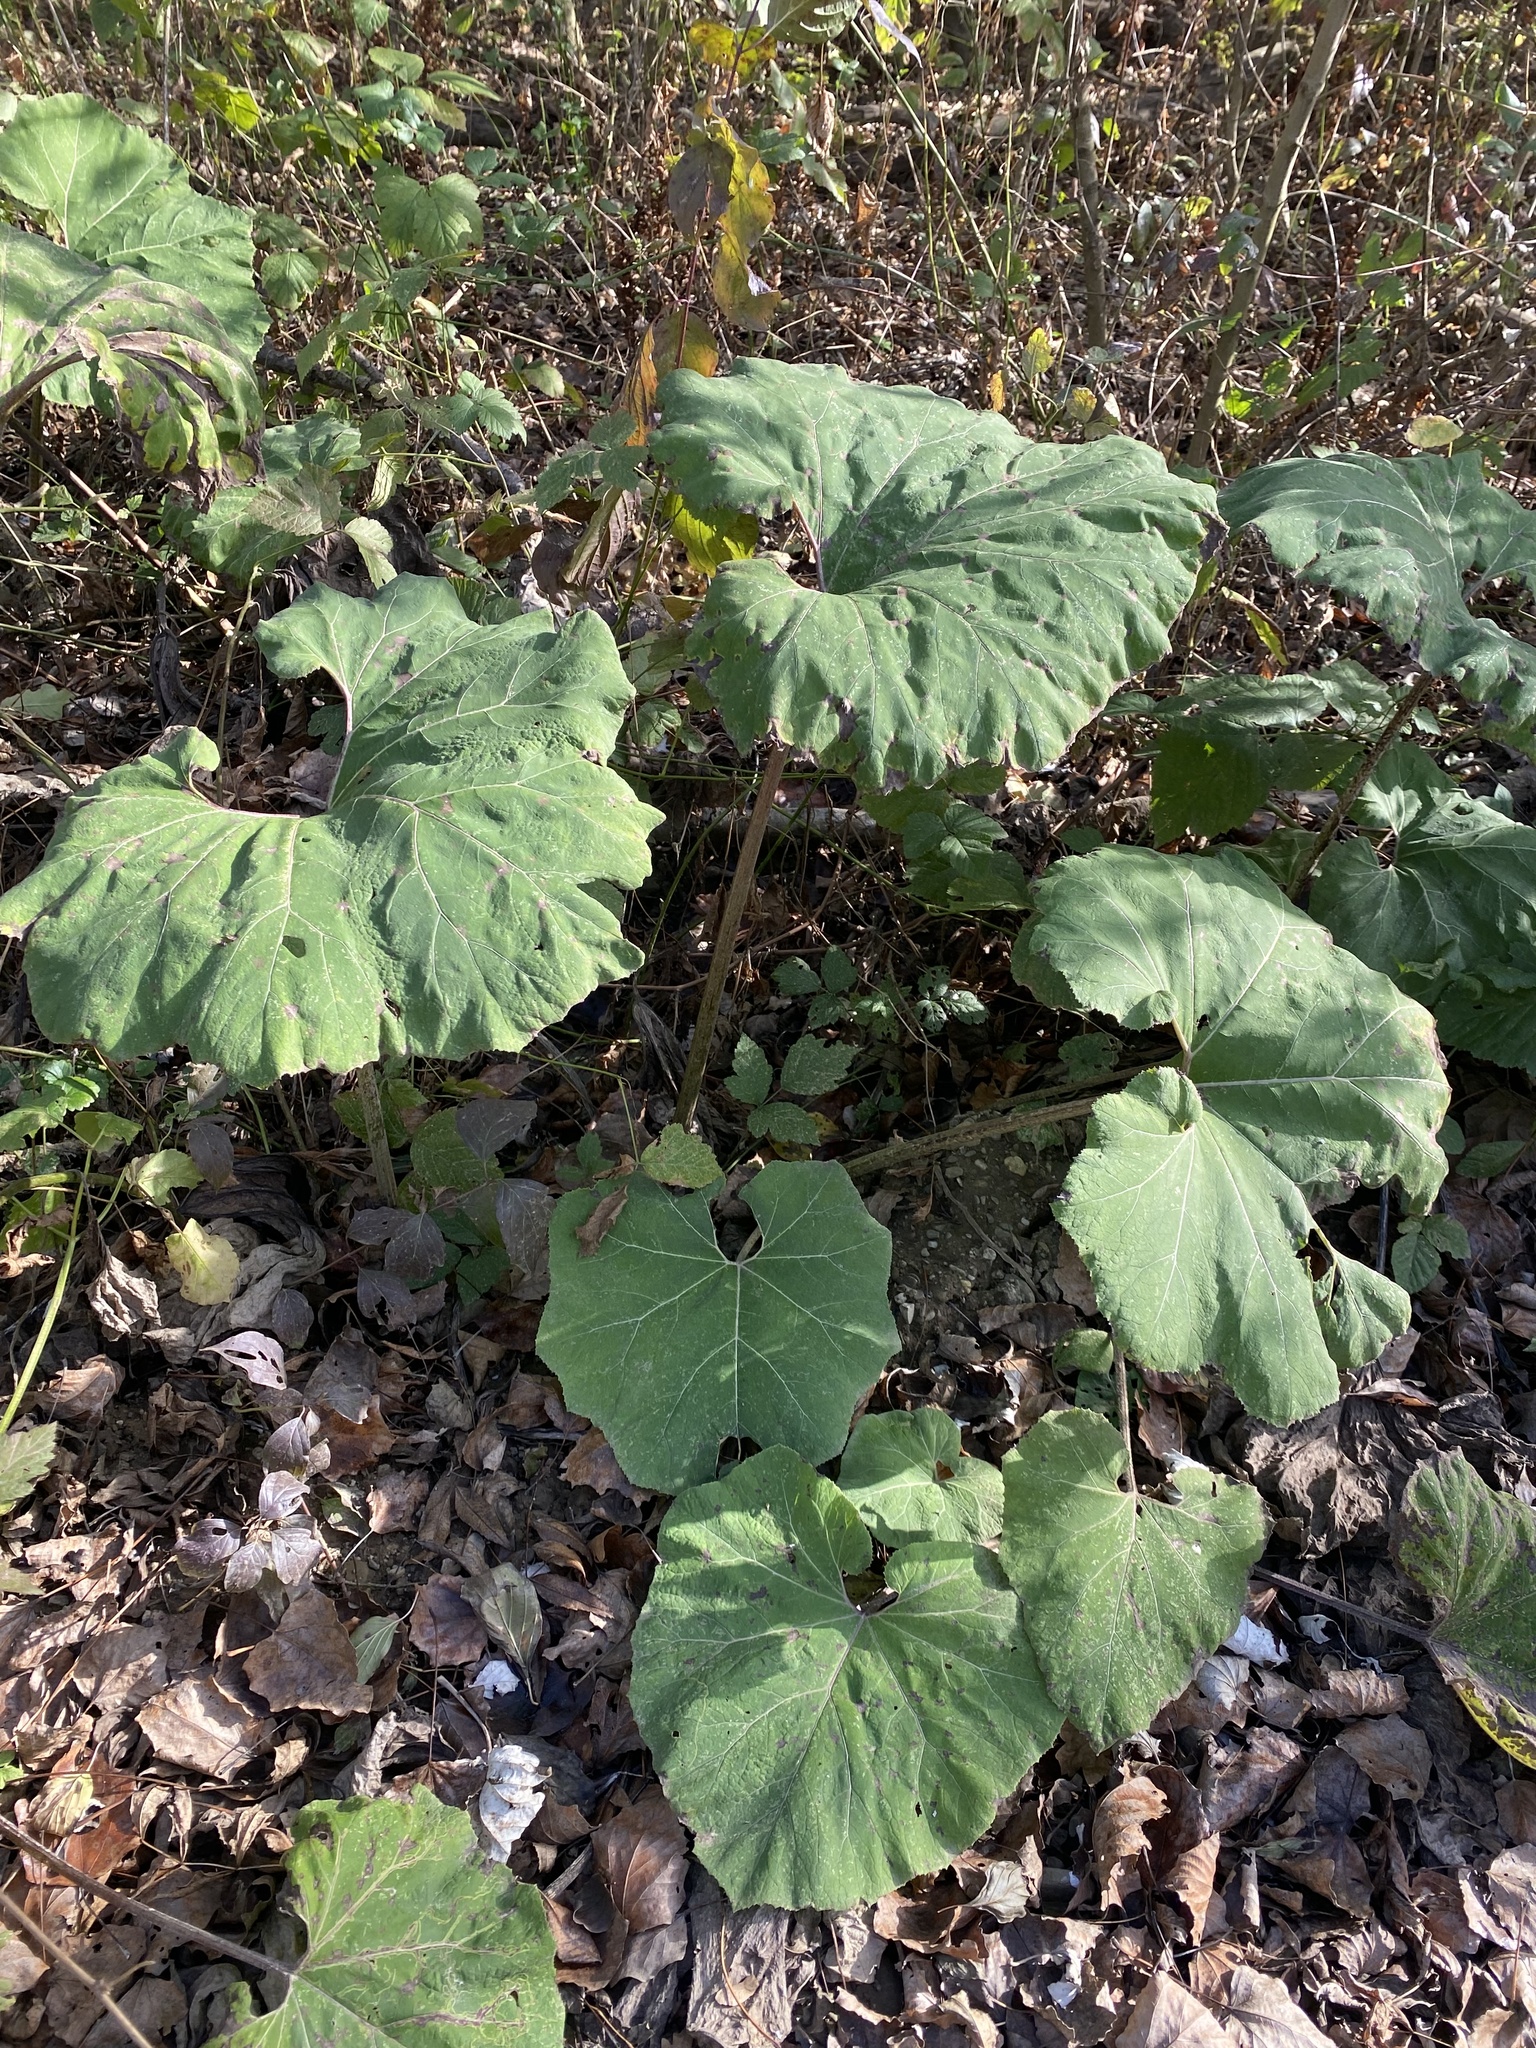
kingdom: Plantae
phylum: Tracheophyta
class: Magnoliopsida
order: Asterales
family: Asteraceae
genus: Petasites
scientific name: Petasites hybridus
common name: Butterbur
